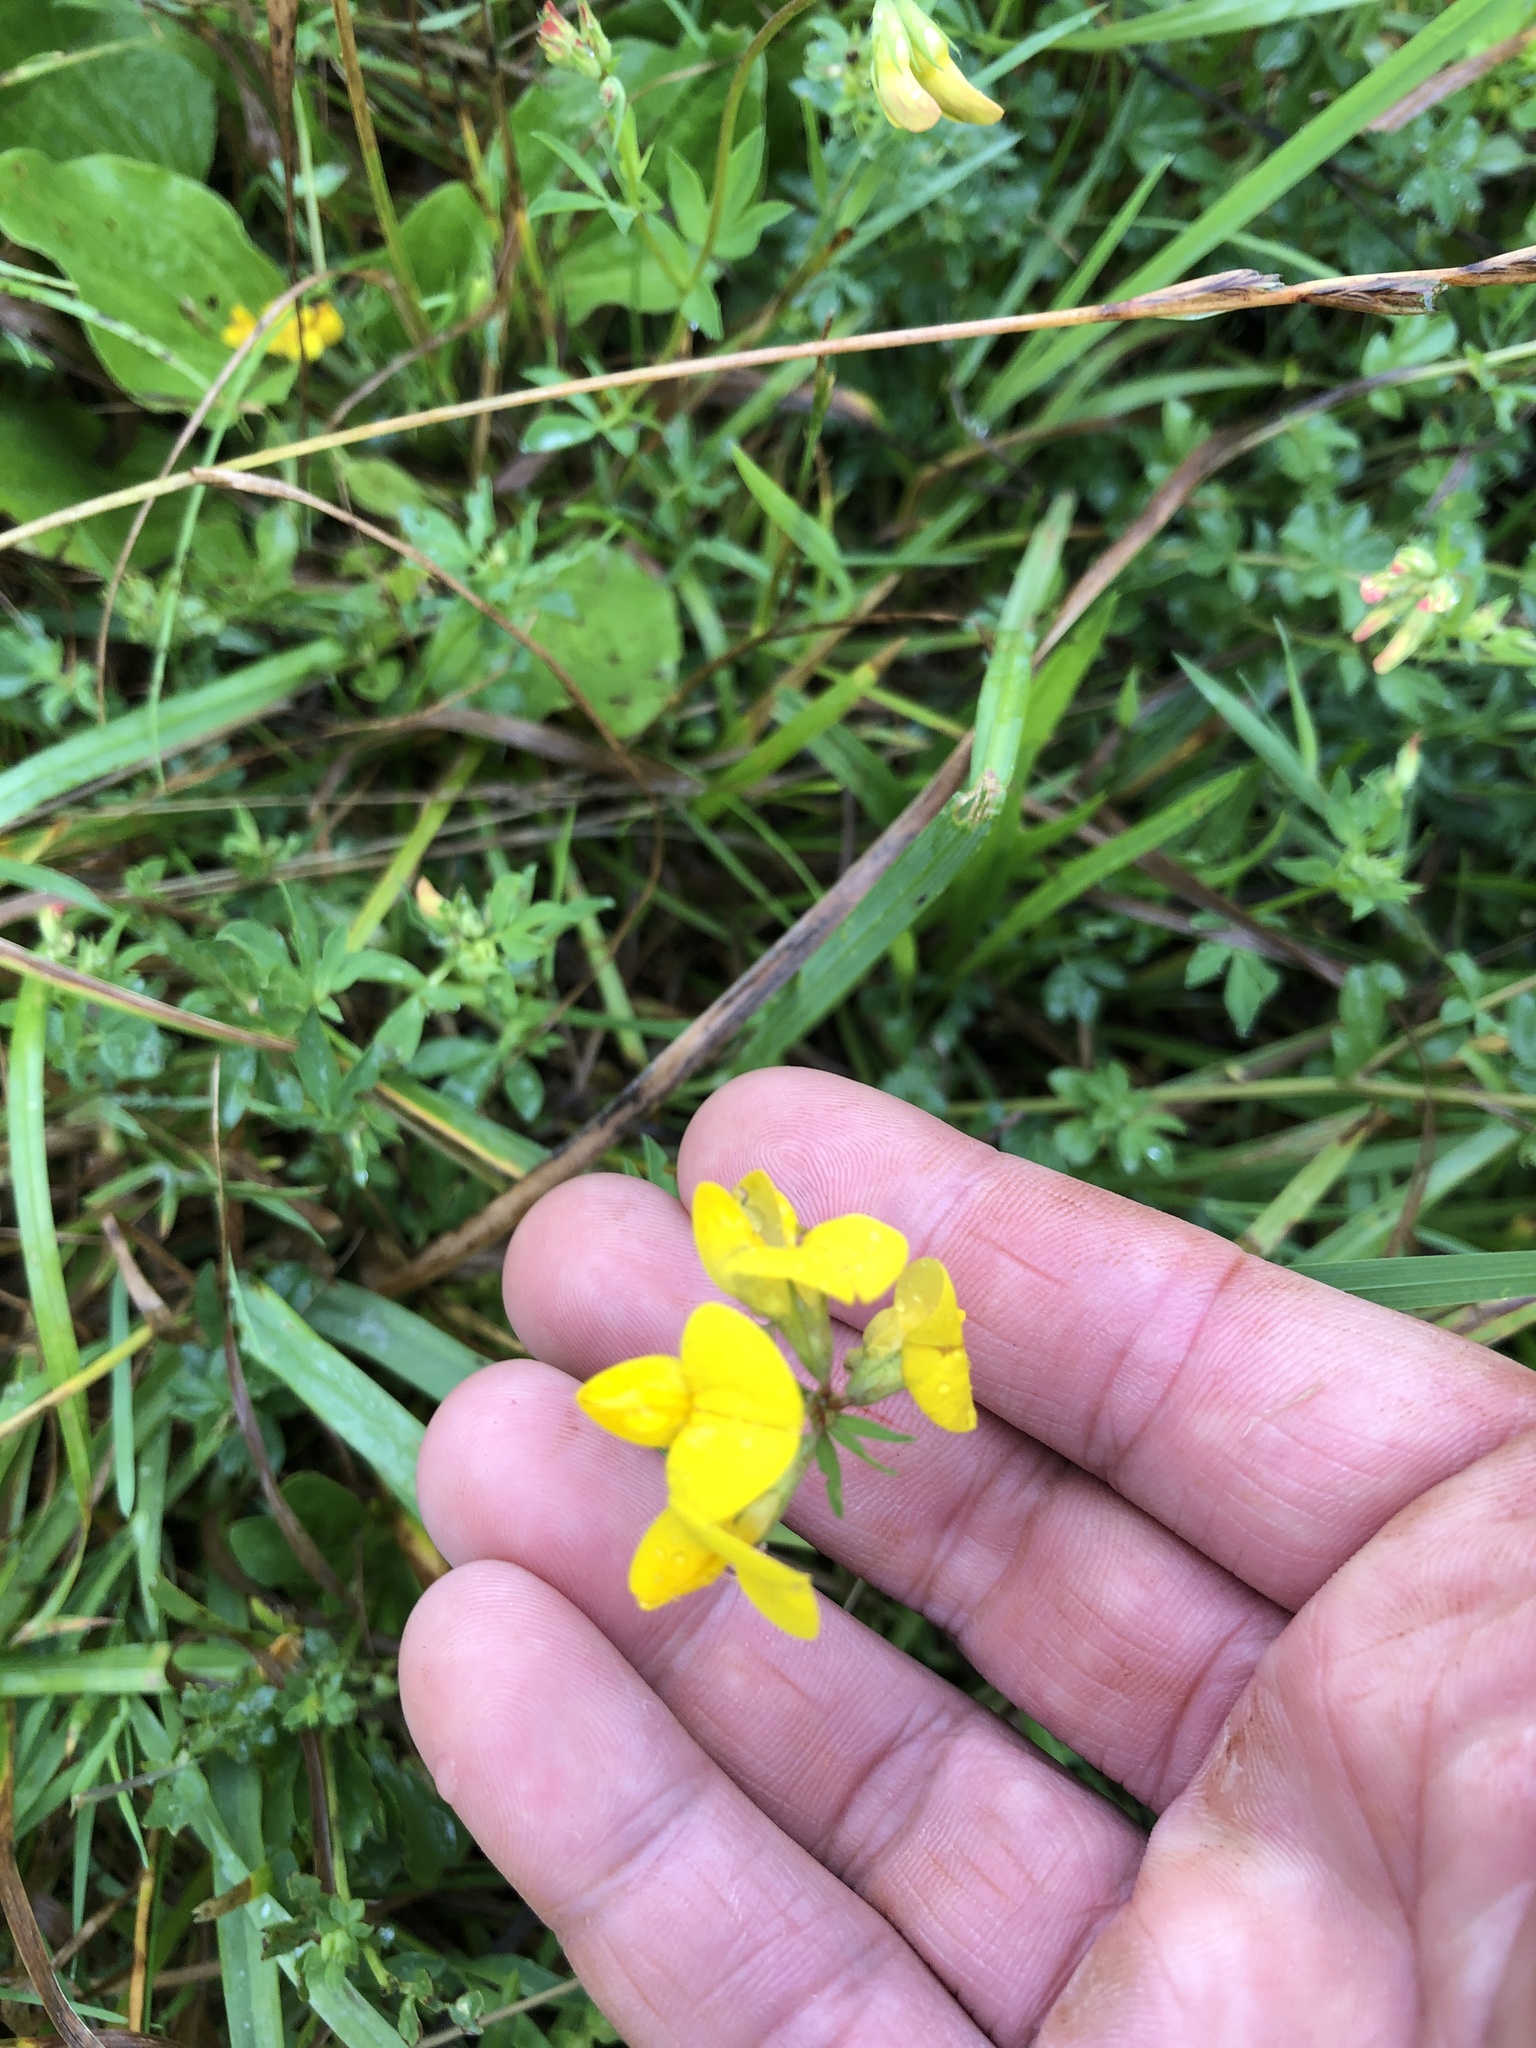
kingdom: Plantae
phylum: Tracheophyta
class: Magnoliopsida
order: Fabales
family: Fabaceae
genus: Lotus
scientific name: Lotus corniculatus
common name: Common bird's-foot-trefoil
